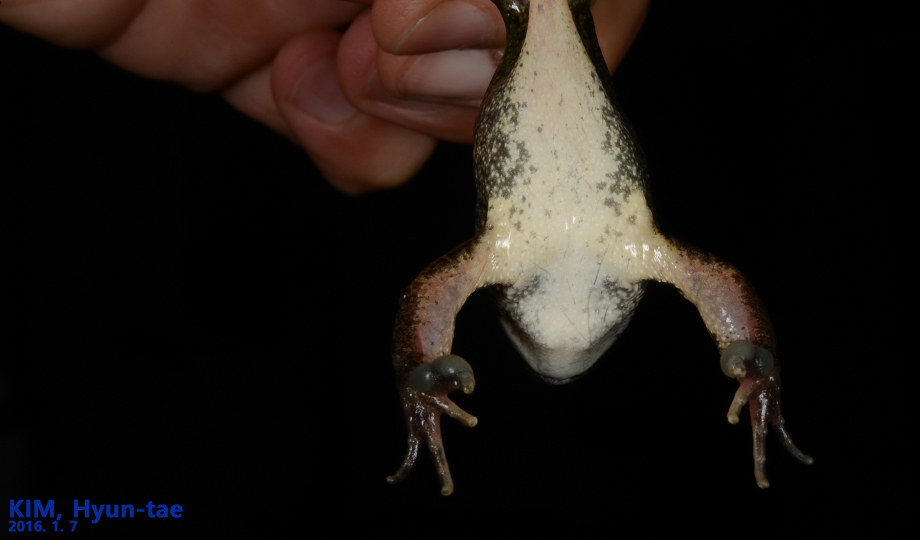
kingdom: Animalia
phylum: Chordata
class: Amphibia
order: Anura
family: Ranidae
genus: Rana
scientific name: Rana uenoi
